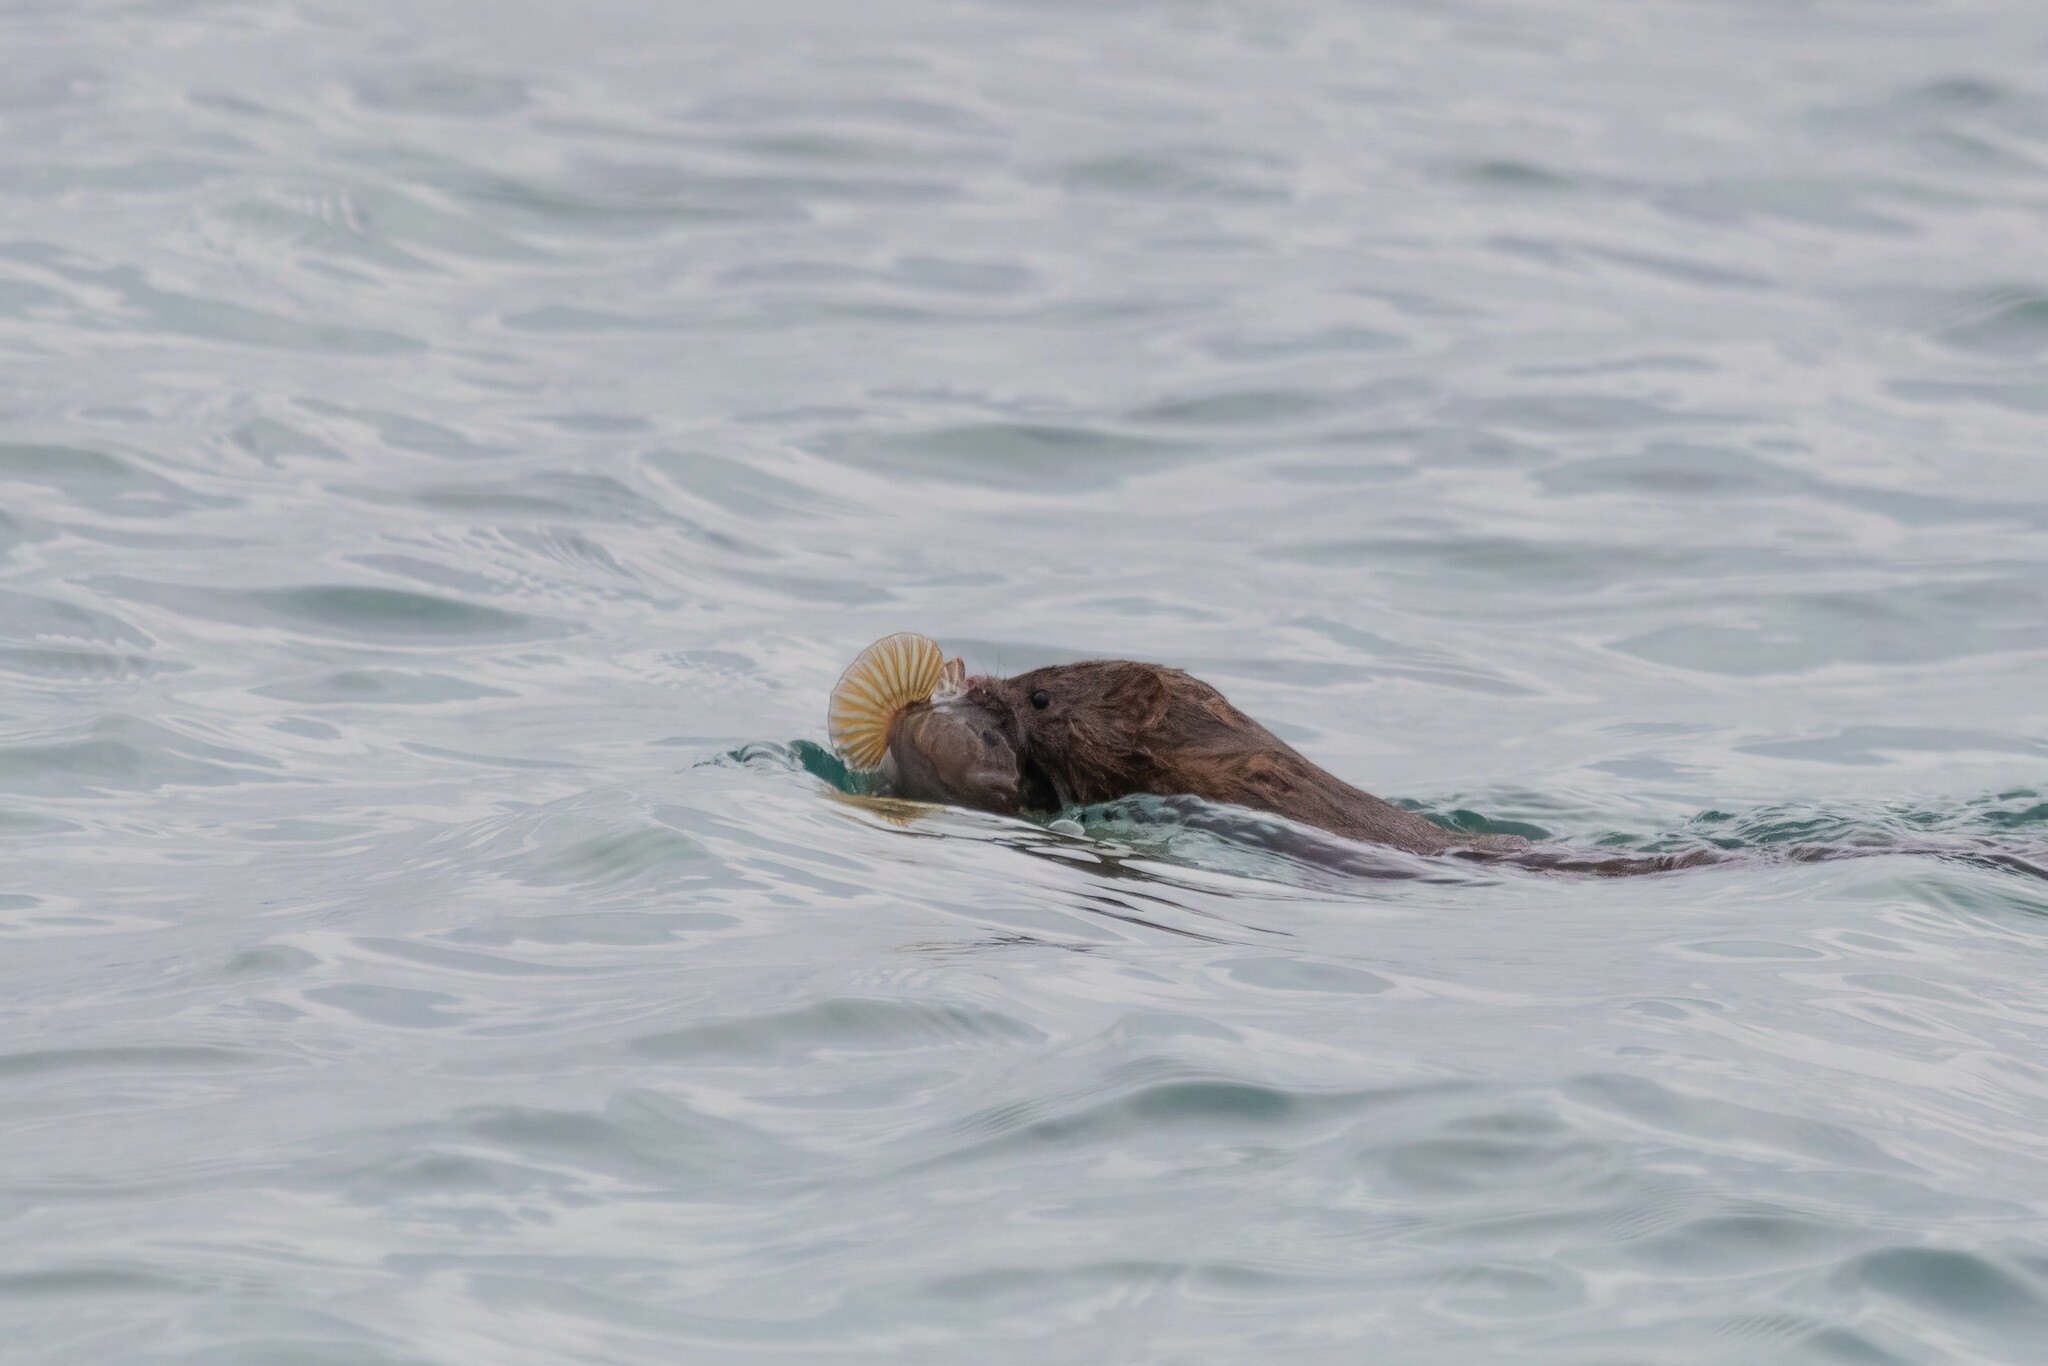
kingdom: Animalia
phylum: Chordata
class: Mammalia
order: Carnivora
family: Mustelidae
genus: Mustela
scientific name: Mustela
